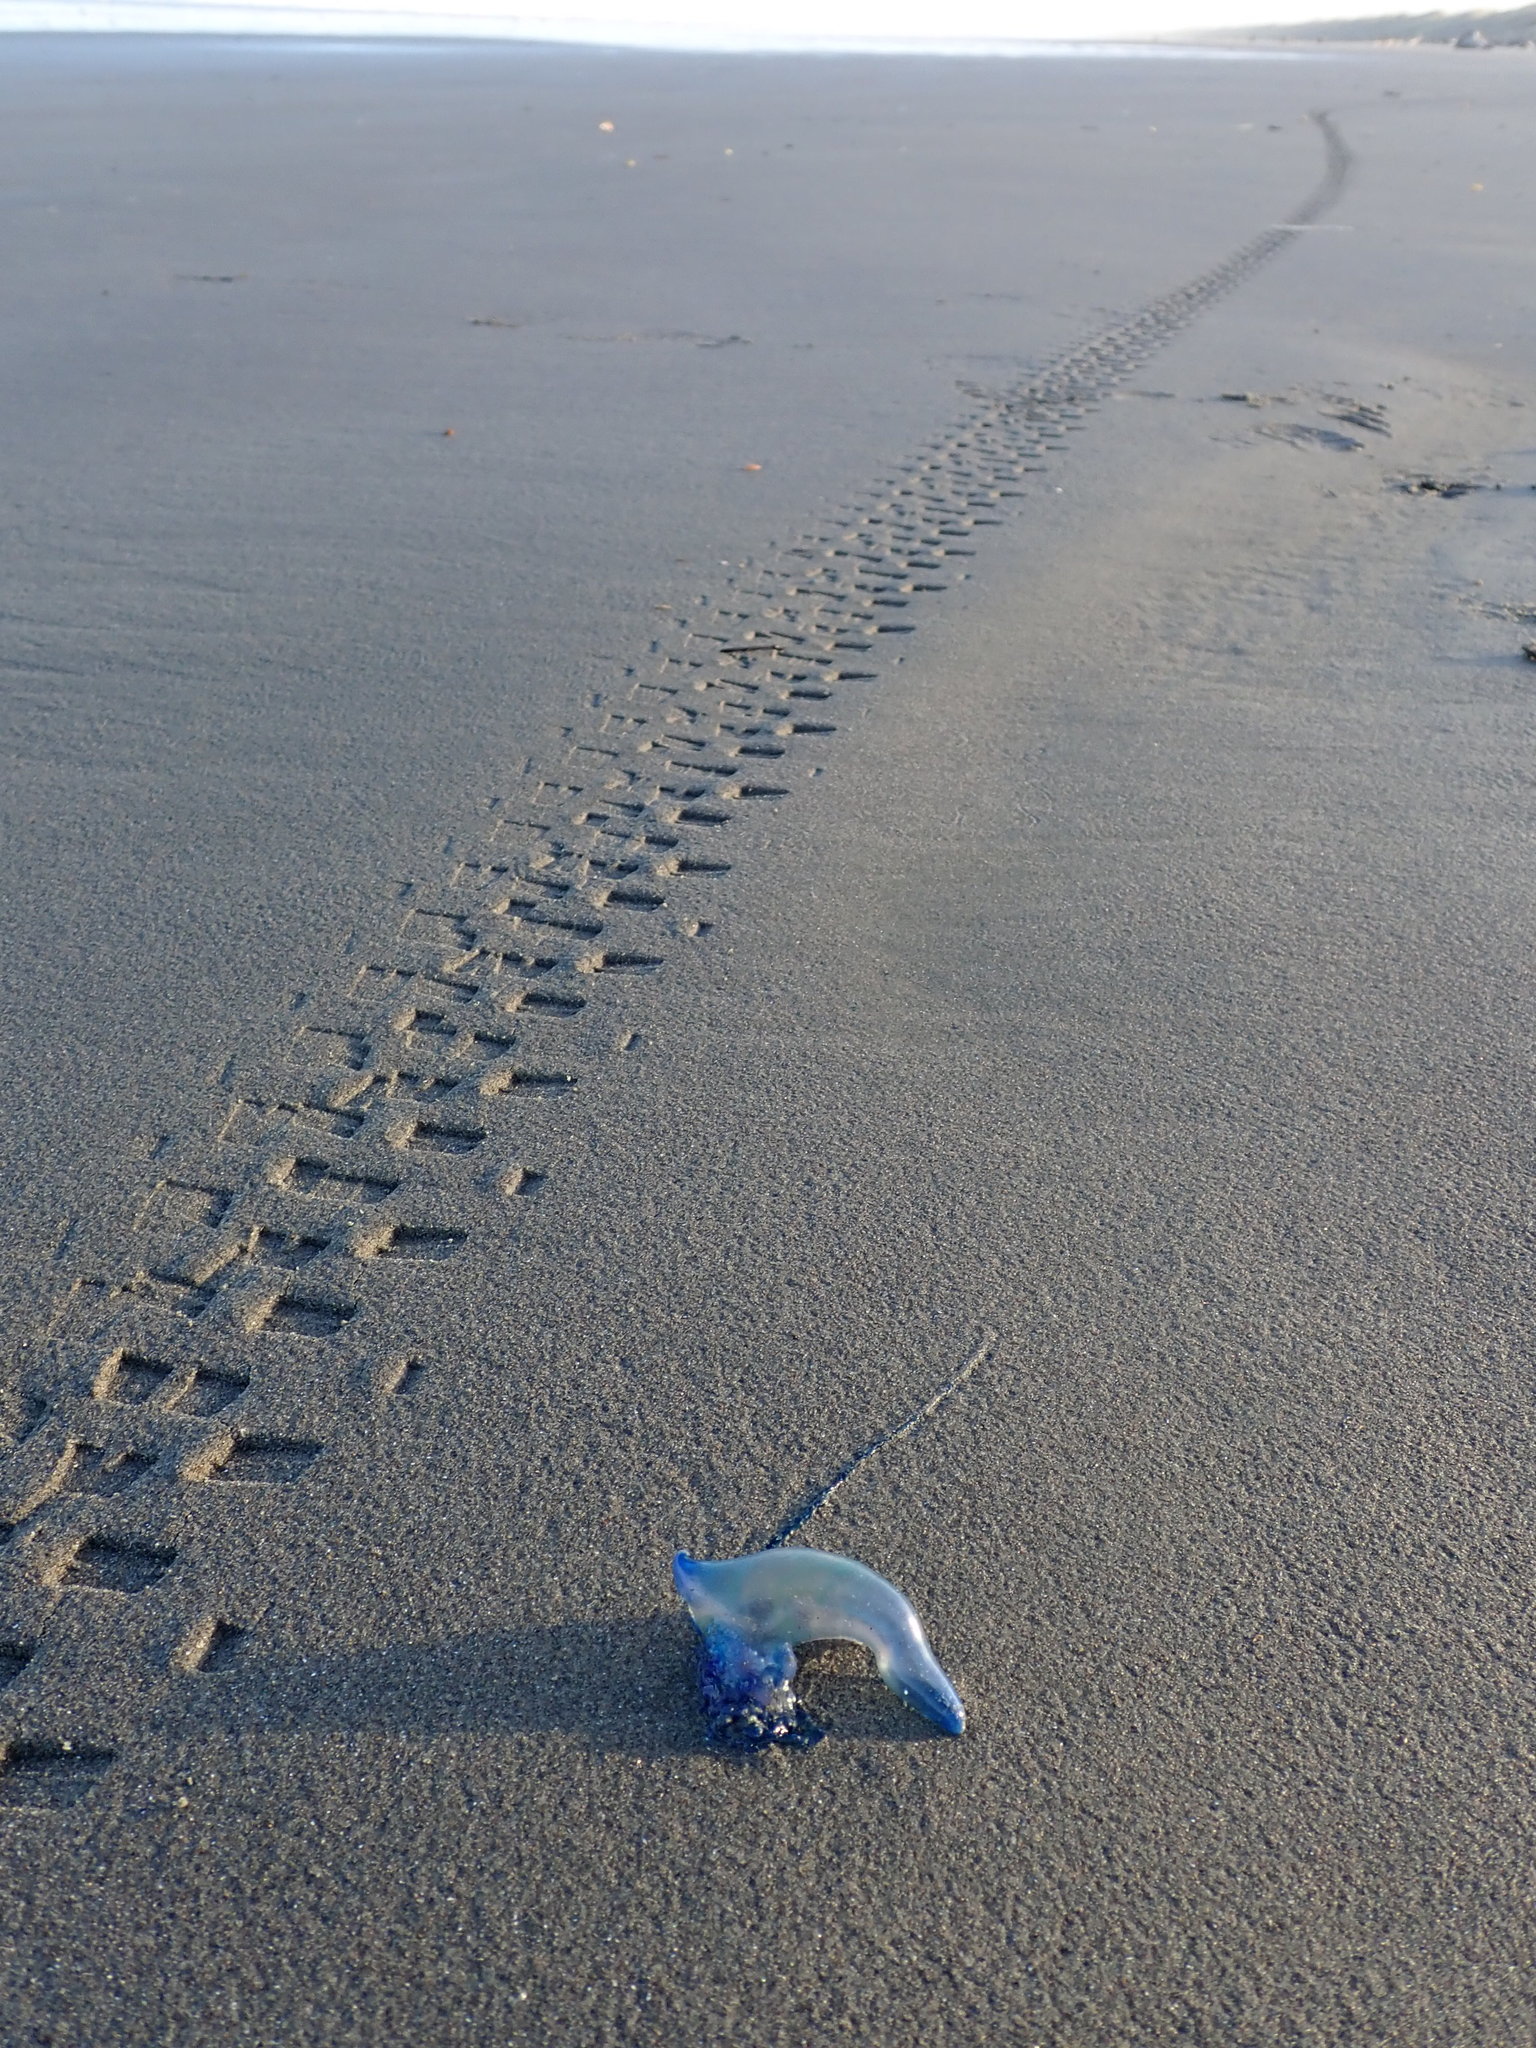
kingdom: Animalia
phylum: Cnidaria
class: Hydrozoa
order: Siphonophorae
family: Physaliidae
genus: Physalia
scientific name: Physalia physalis
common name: Portuguese man-of-war
